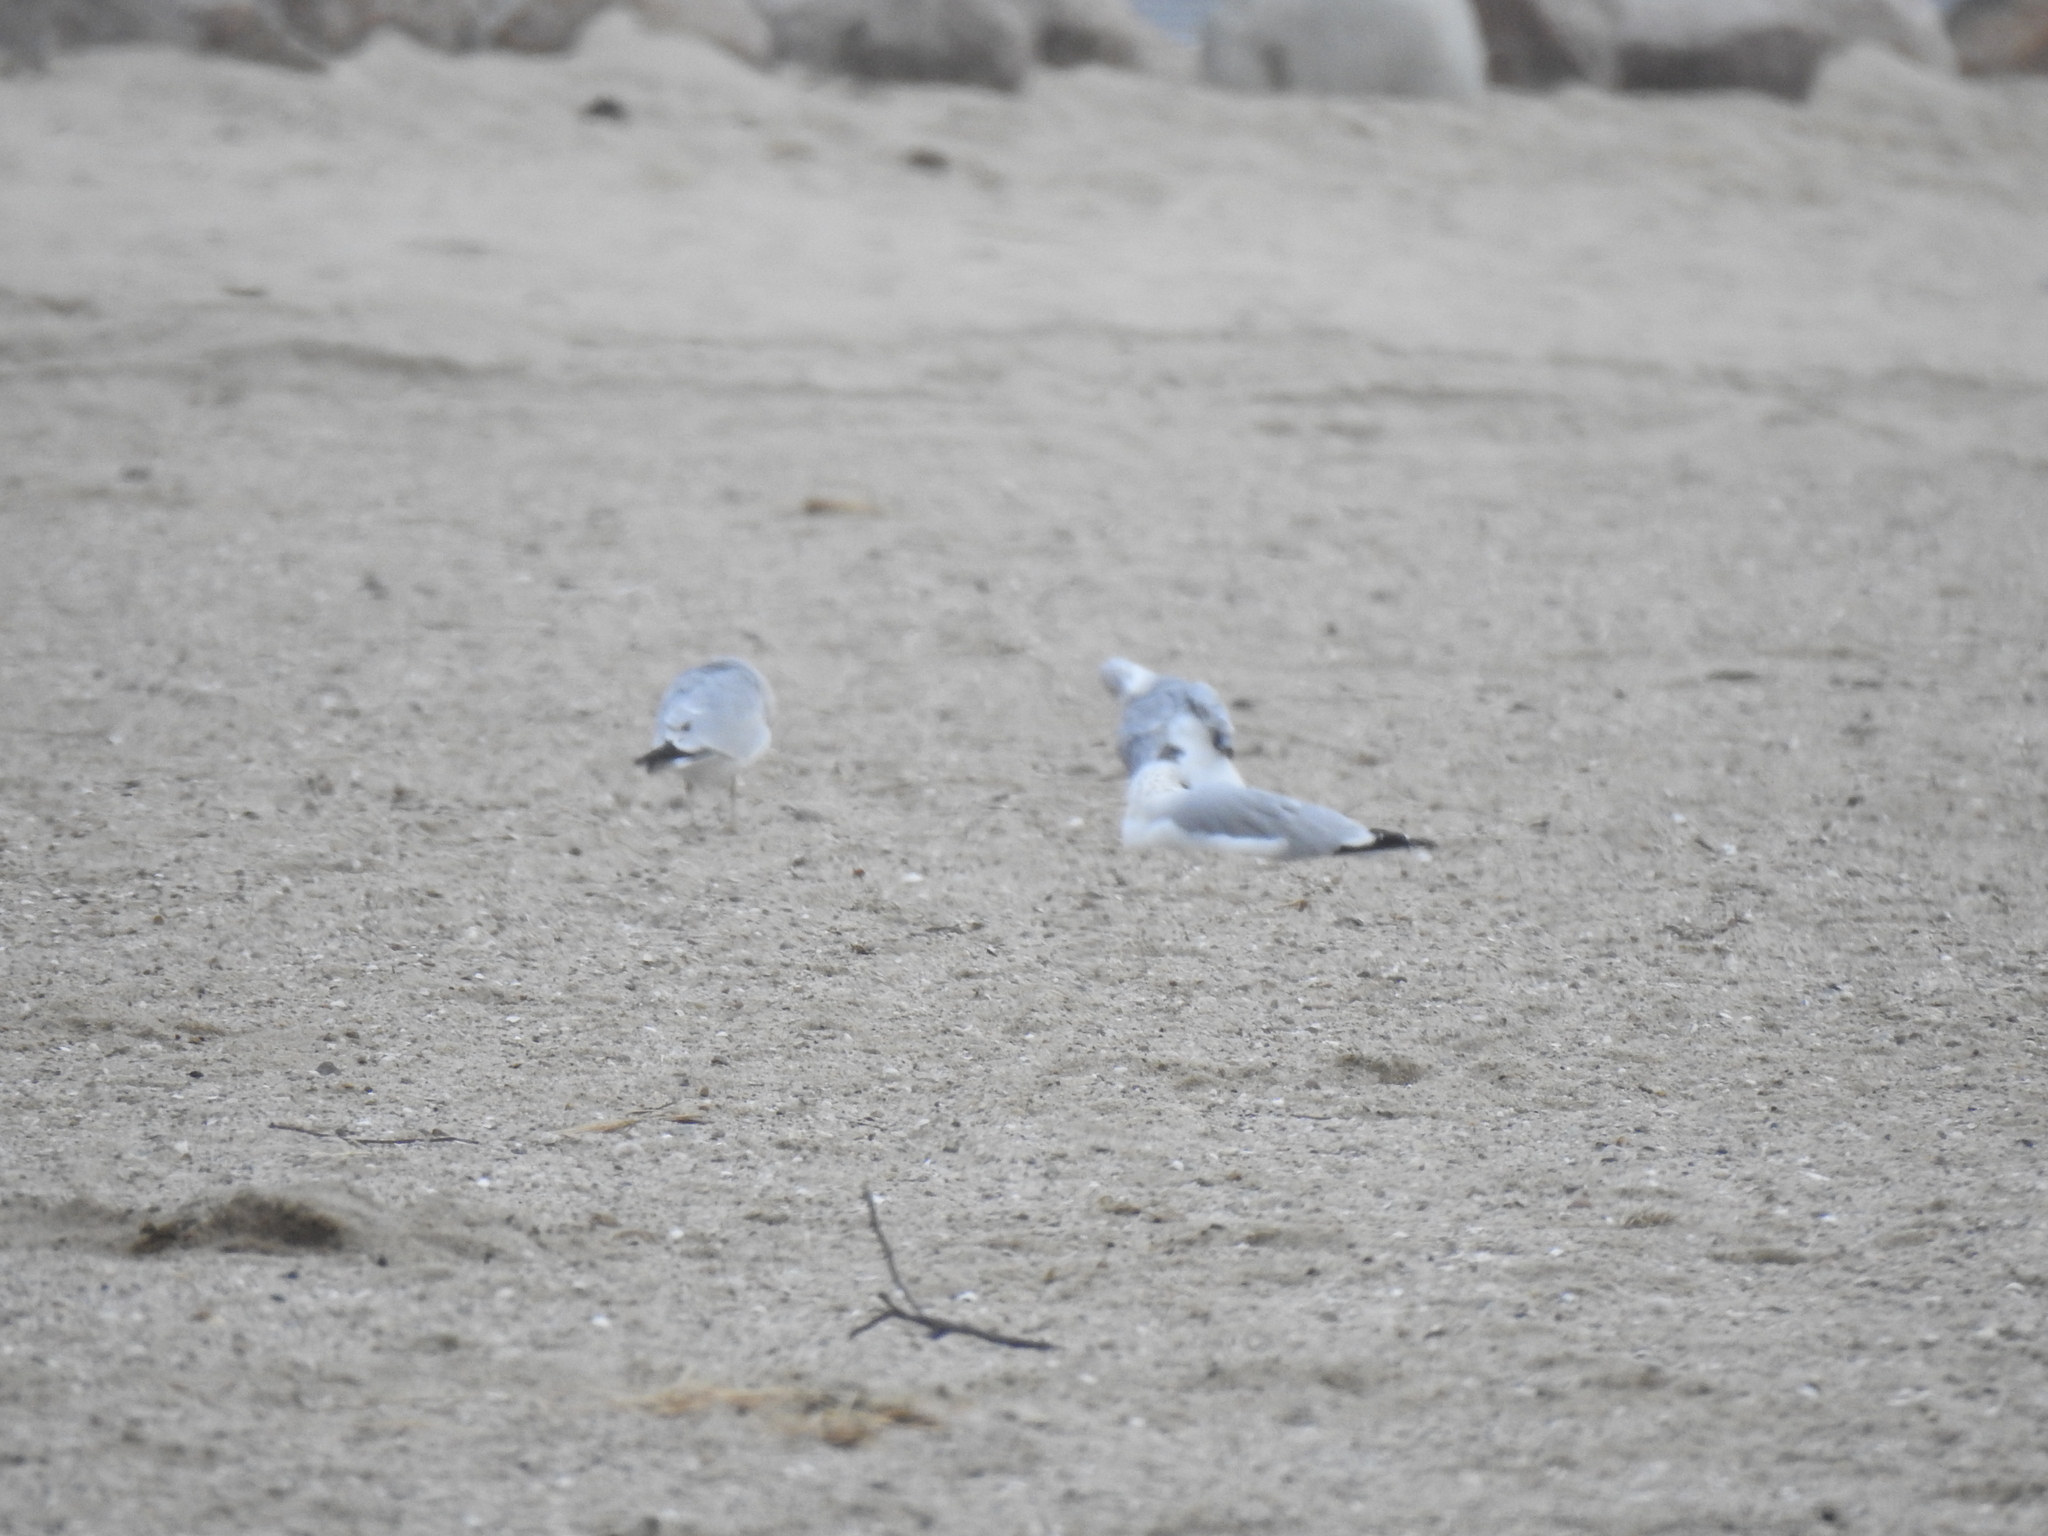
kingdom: Animalia
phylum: Chordata
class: Aves
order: Charadriiformes
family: Laridae
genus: Larus
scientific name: Larus delawarensis
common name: Ring-billed gull
